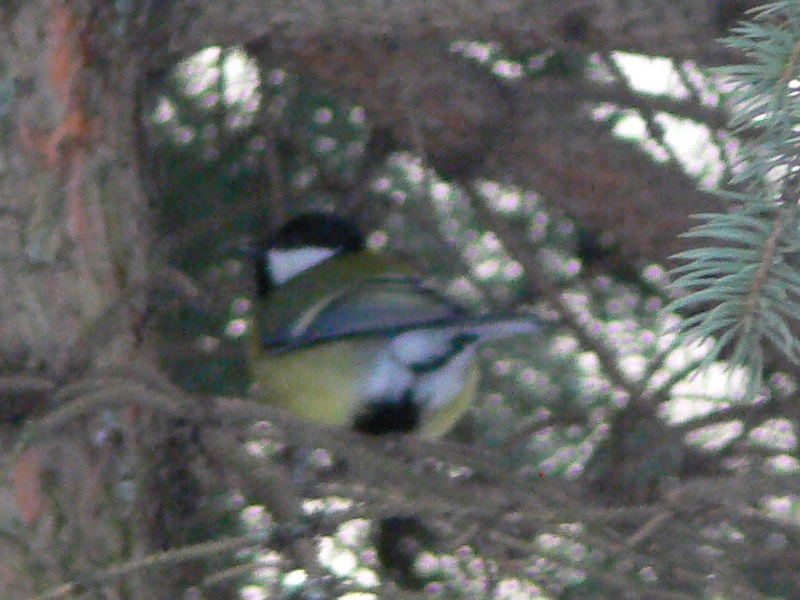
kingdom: Animalia
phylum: Chordata
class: Aves
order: Passeriformes
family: Paridae
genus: Parus
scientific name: Parus major
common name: Great tit
